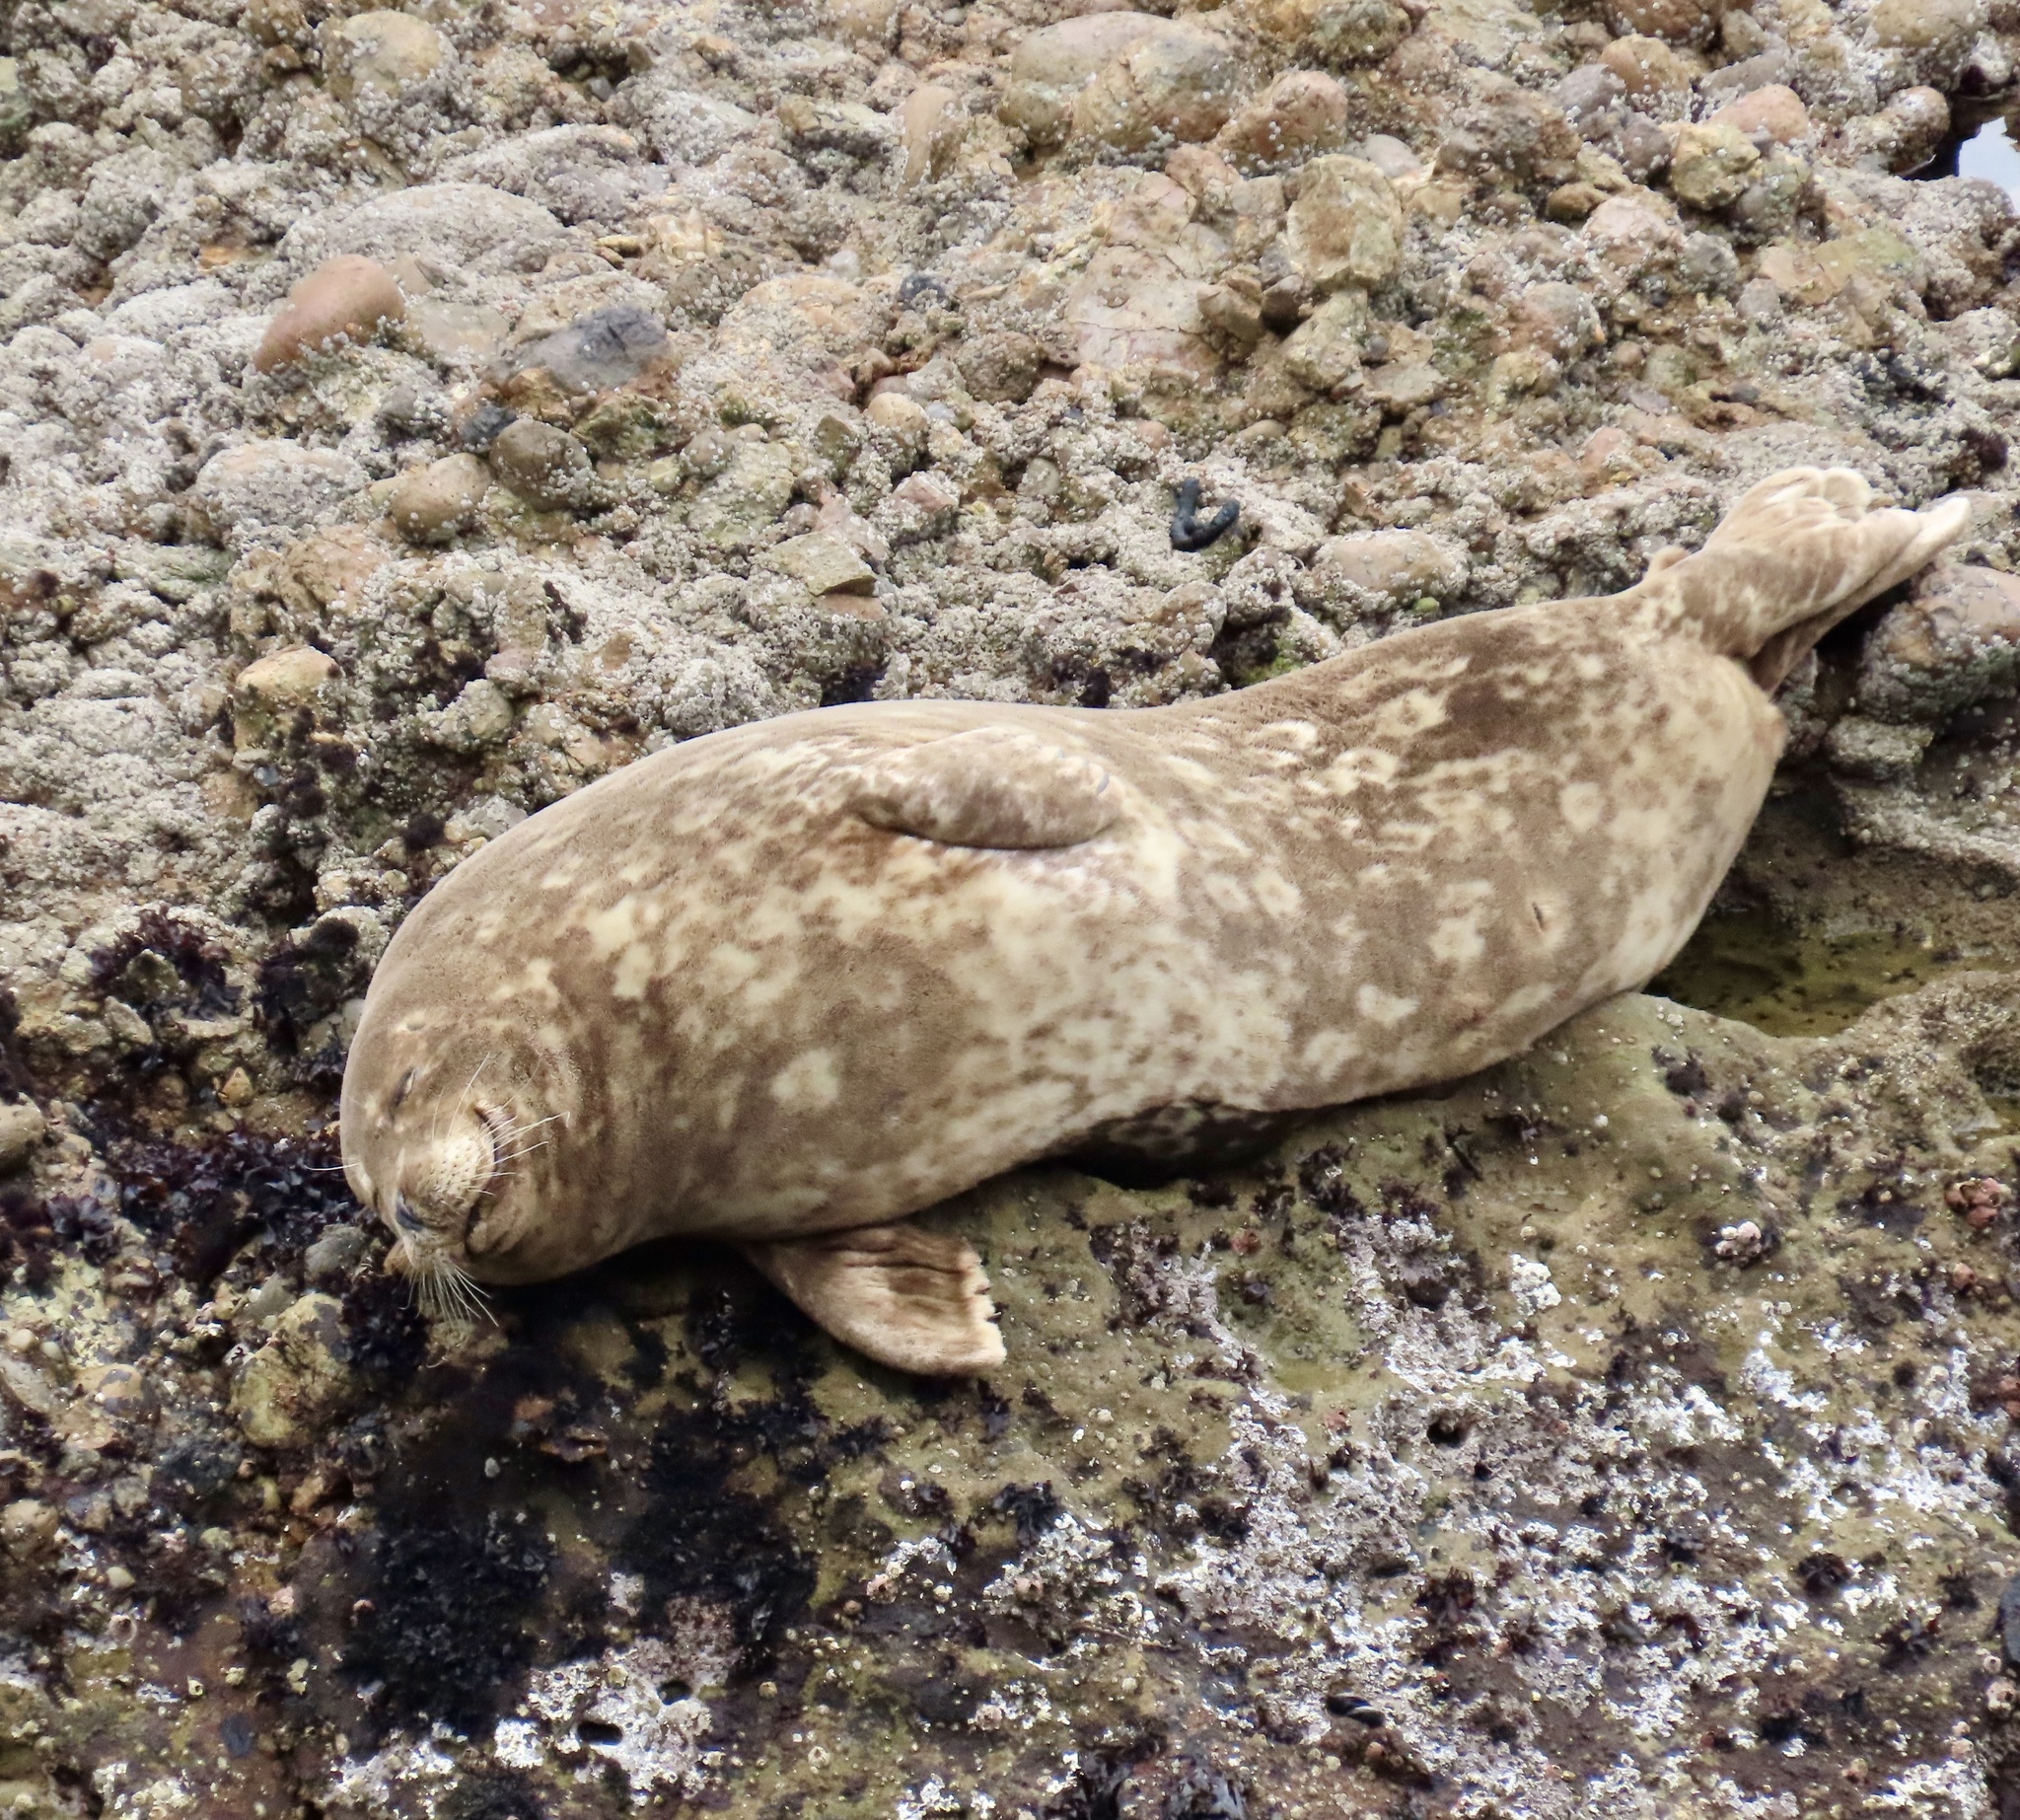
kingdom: Animalia
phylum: Chordata
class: Mammalia
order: Carnivora
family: Phocidae
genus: Phoca
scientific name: Phoca vitulina
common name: Harbor seal
